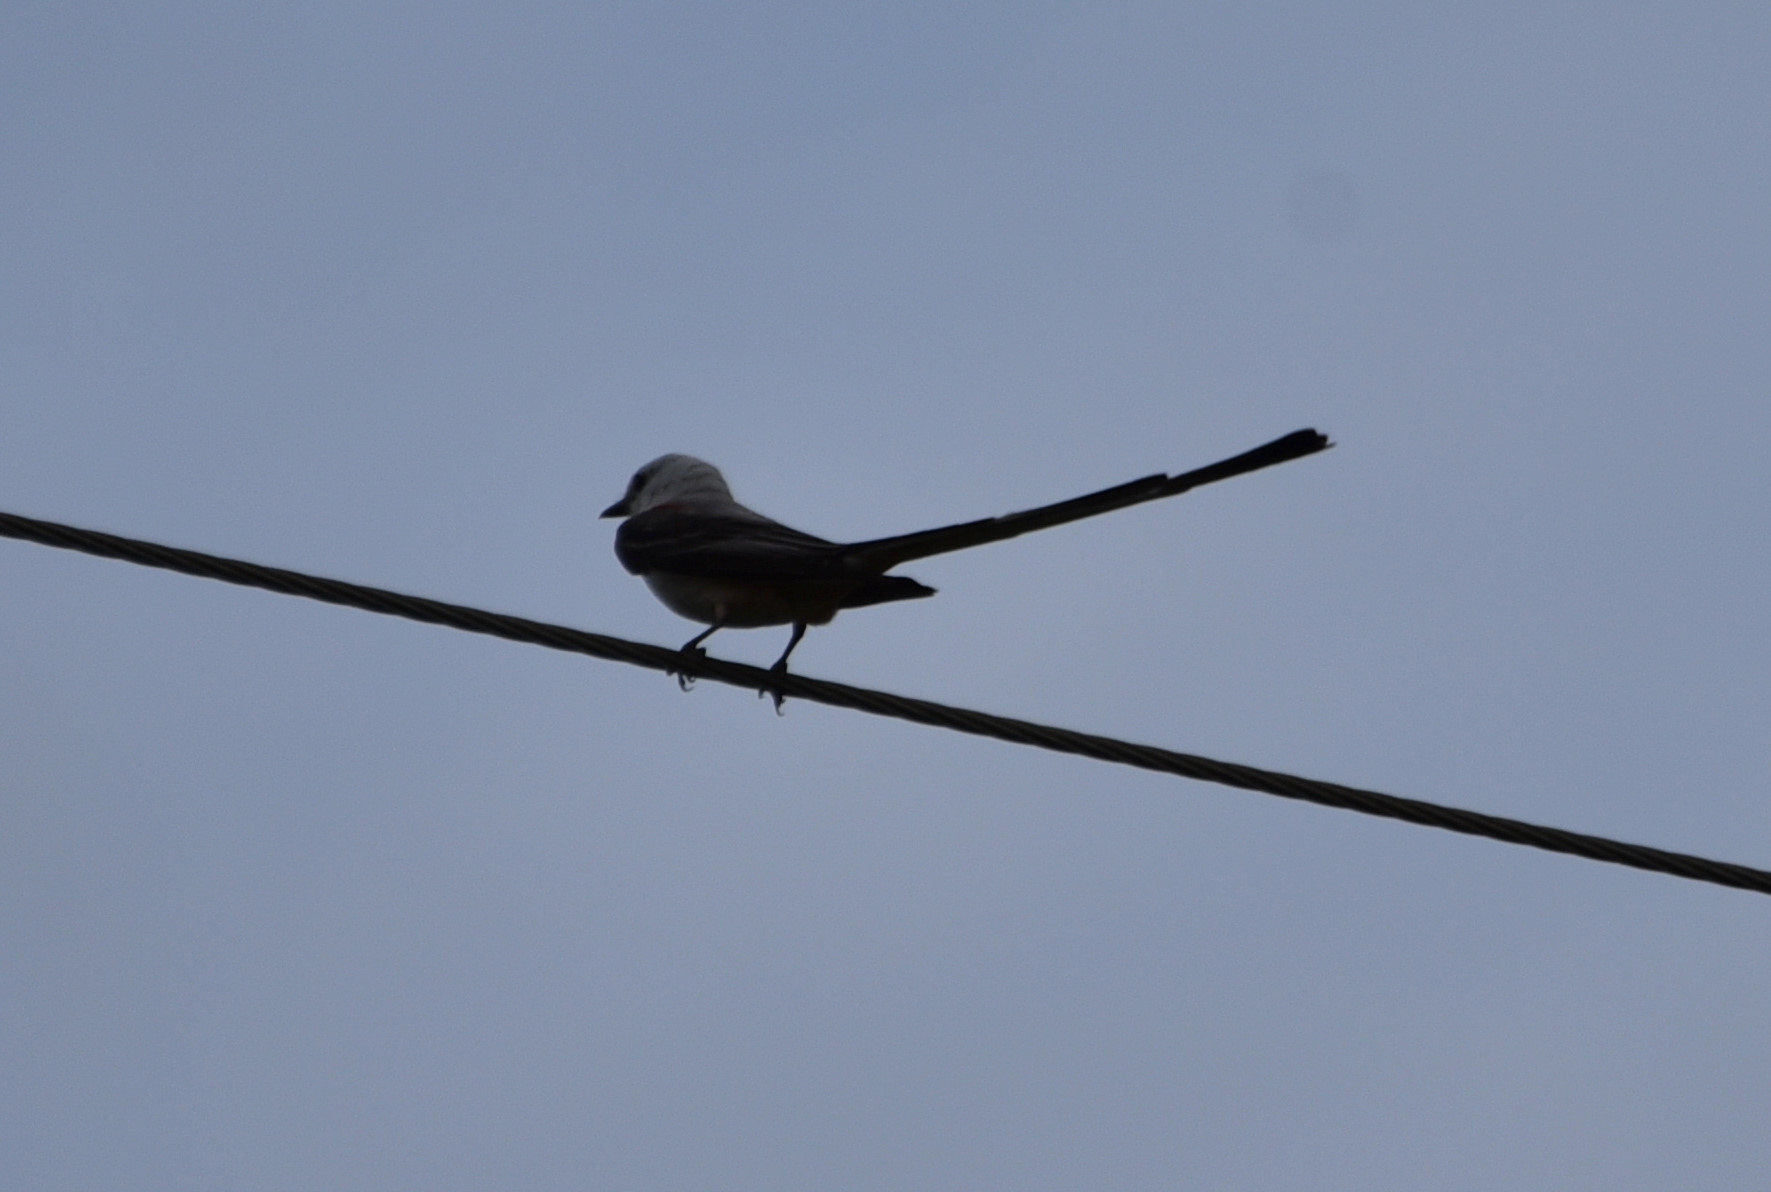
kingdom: Animalia
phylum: Chordata
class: Aves
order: Passeriformes
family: Tyrannidae
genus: Tyrannus
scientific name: Tyrannus forficatus
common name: Scissor-tailed flycatcher
